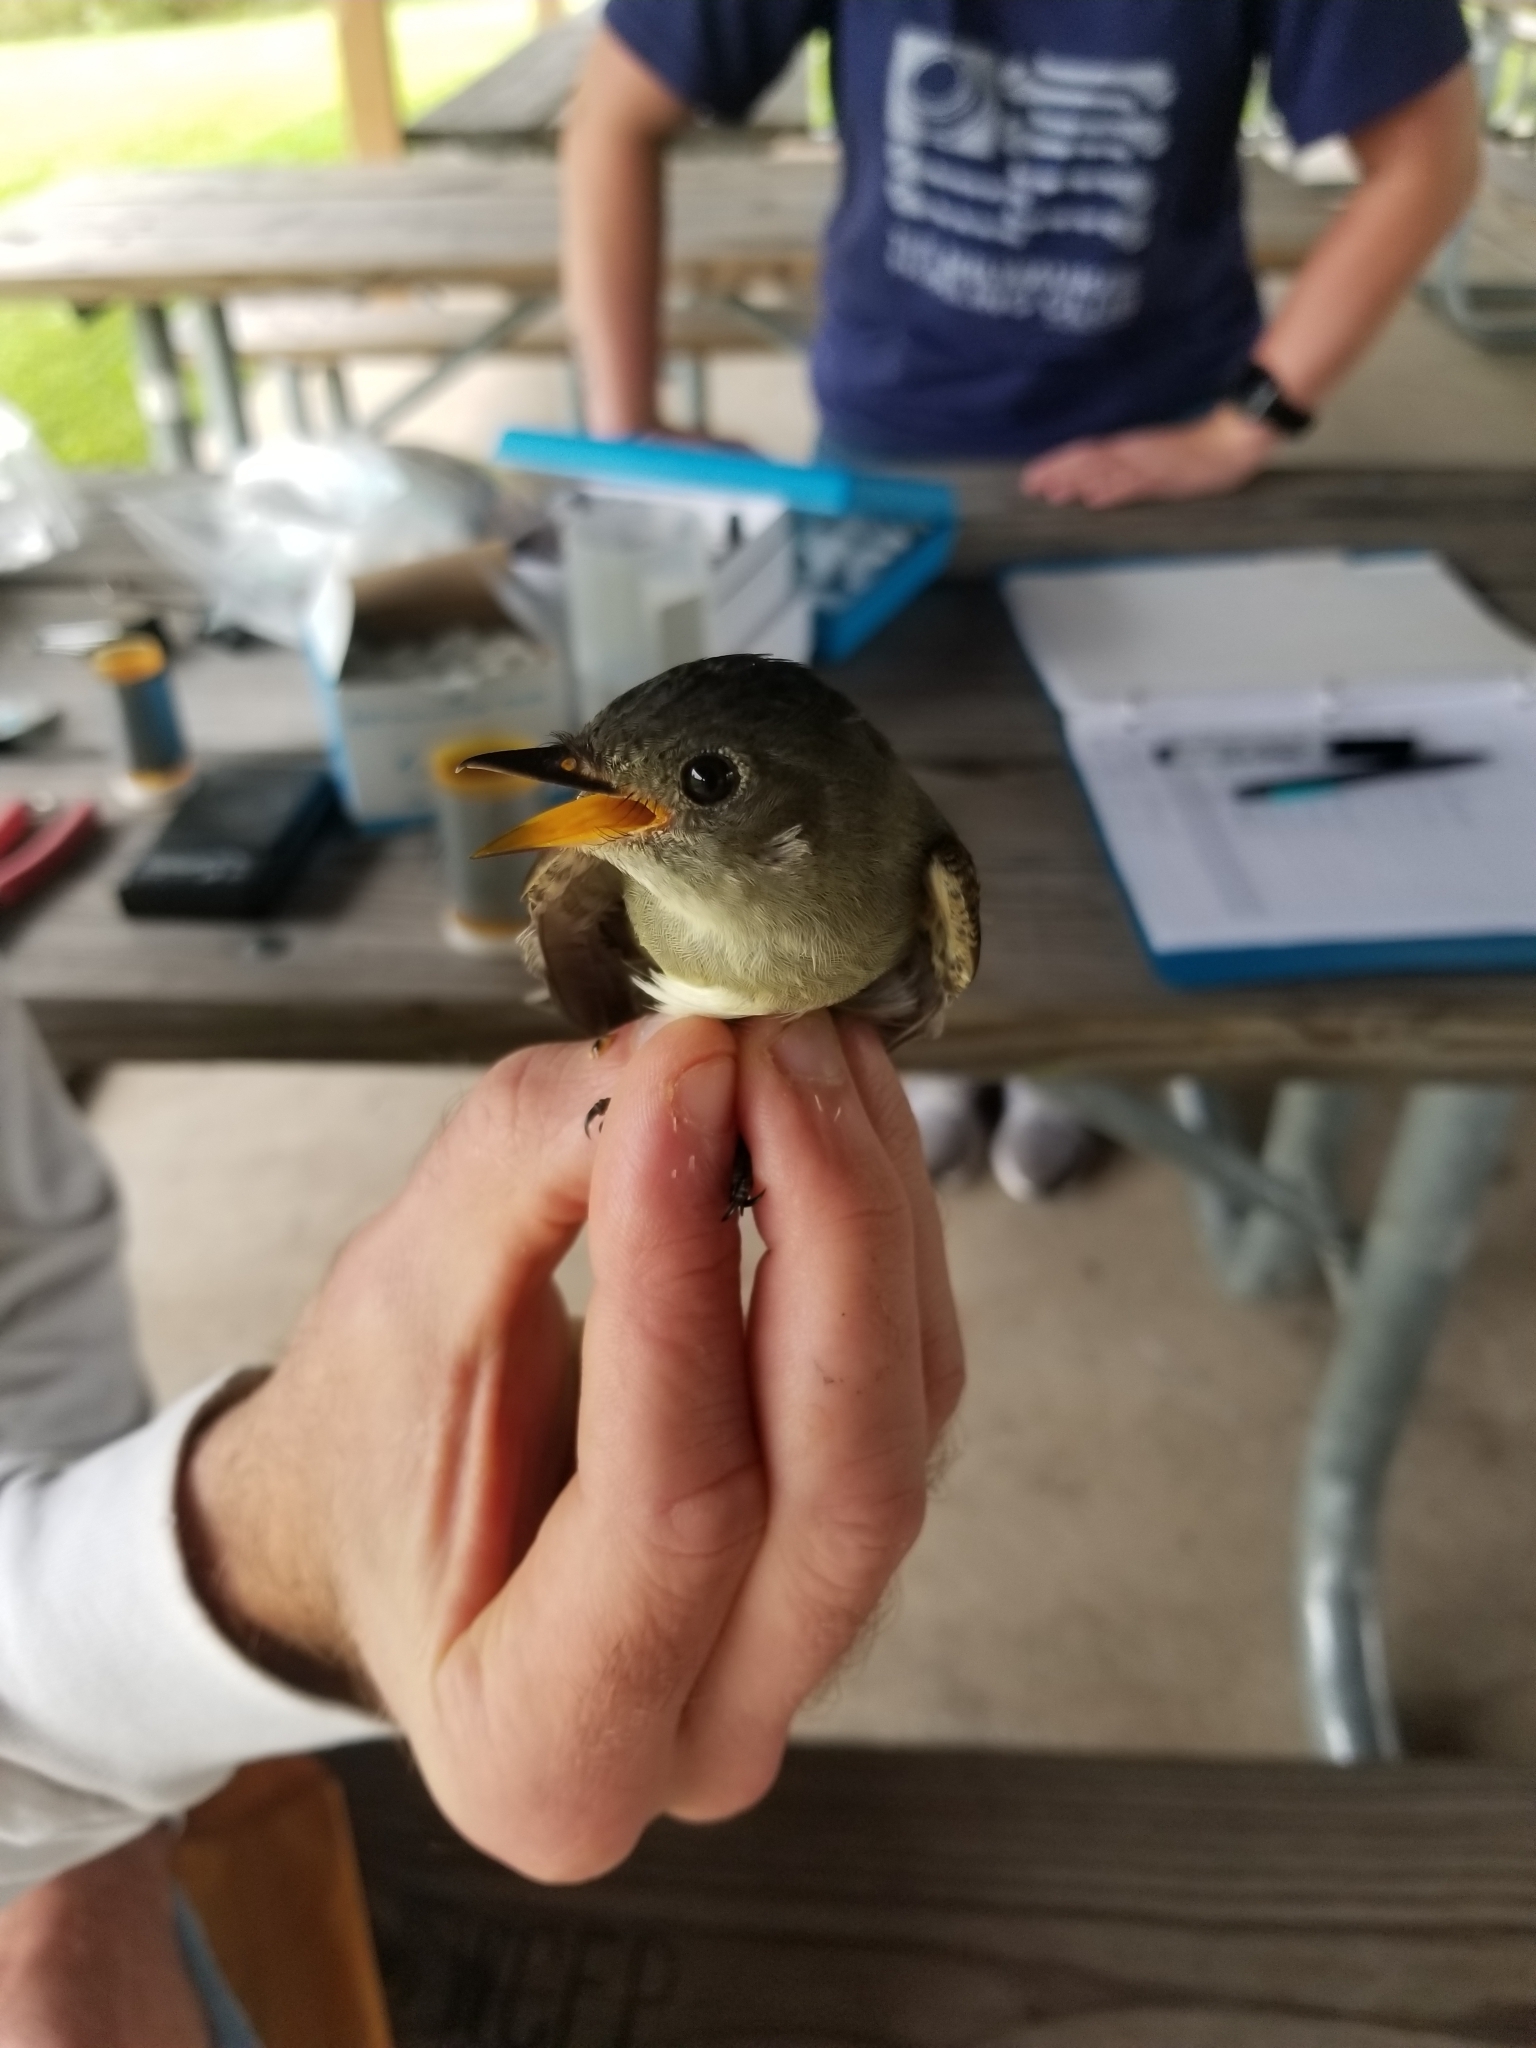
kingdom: Animalia
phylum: Chordata
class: Aves
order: Passeriformes
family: Tyrannidae
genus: Contopus
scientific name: Contopus virens
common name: Eastern wood-pewee
